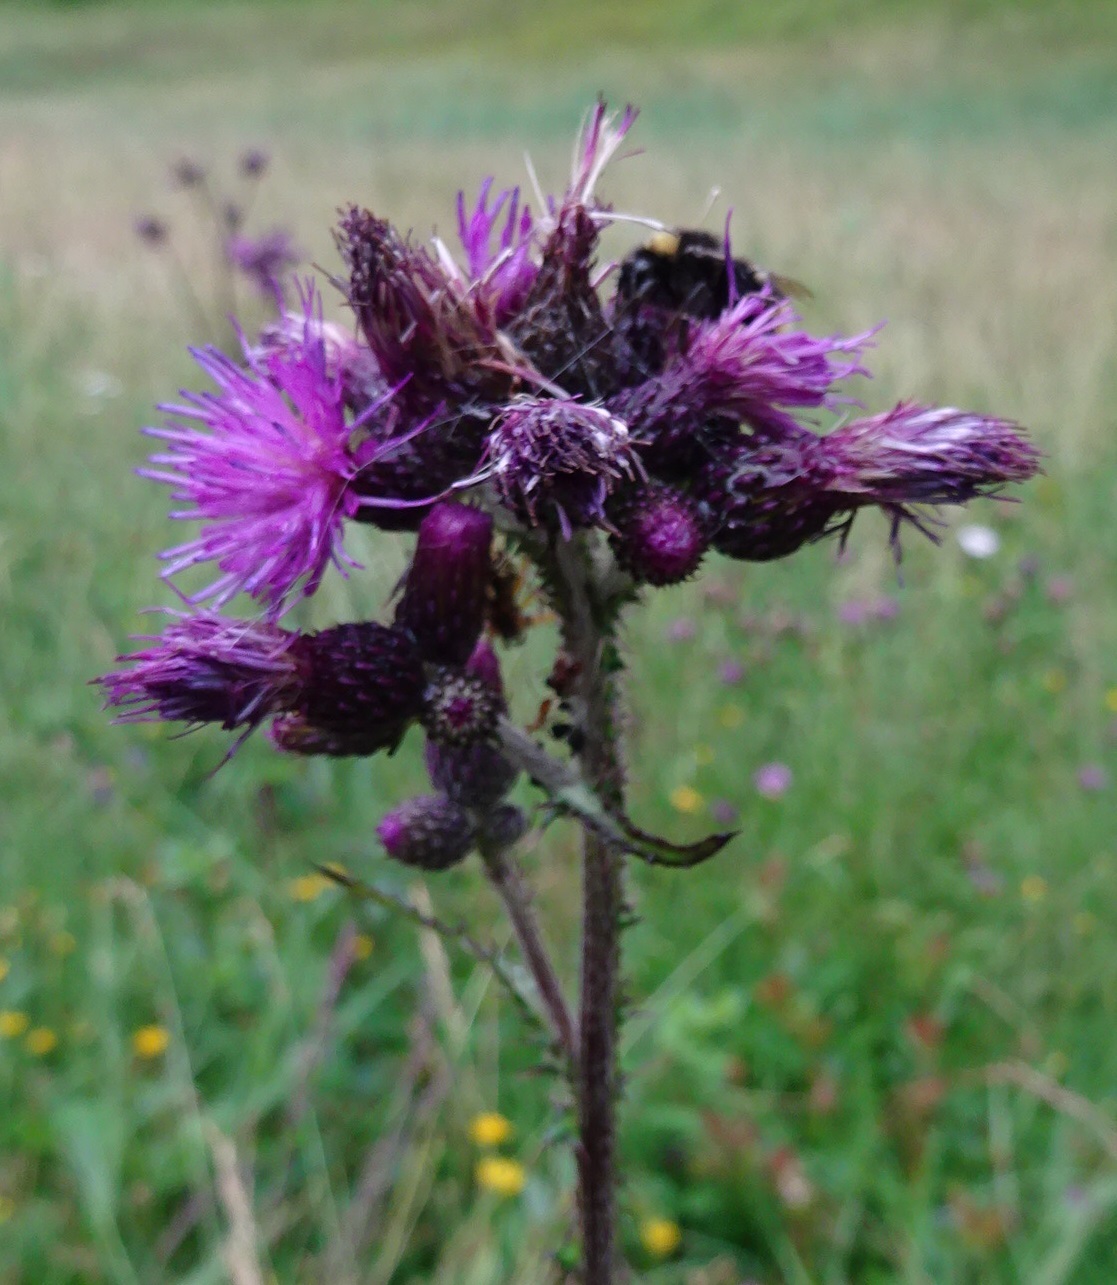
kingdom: Plantae
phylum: Tracheophyta
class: Magnoliopsida
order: Asterales
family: Asteraceae
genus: Cirsium
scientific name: Cirsium palustre
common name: Marsh thistle
